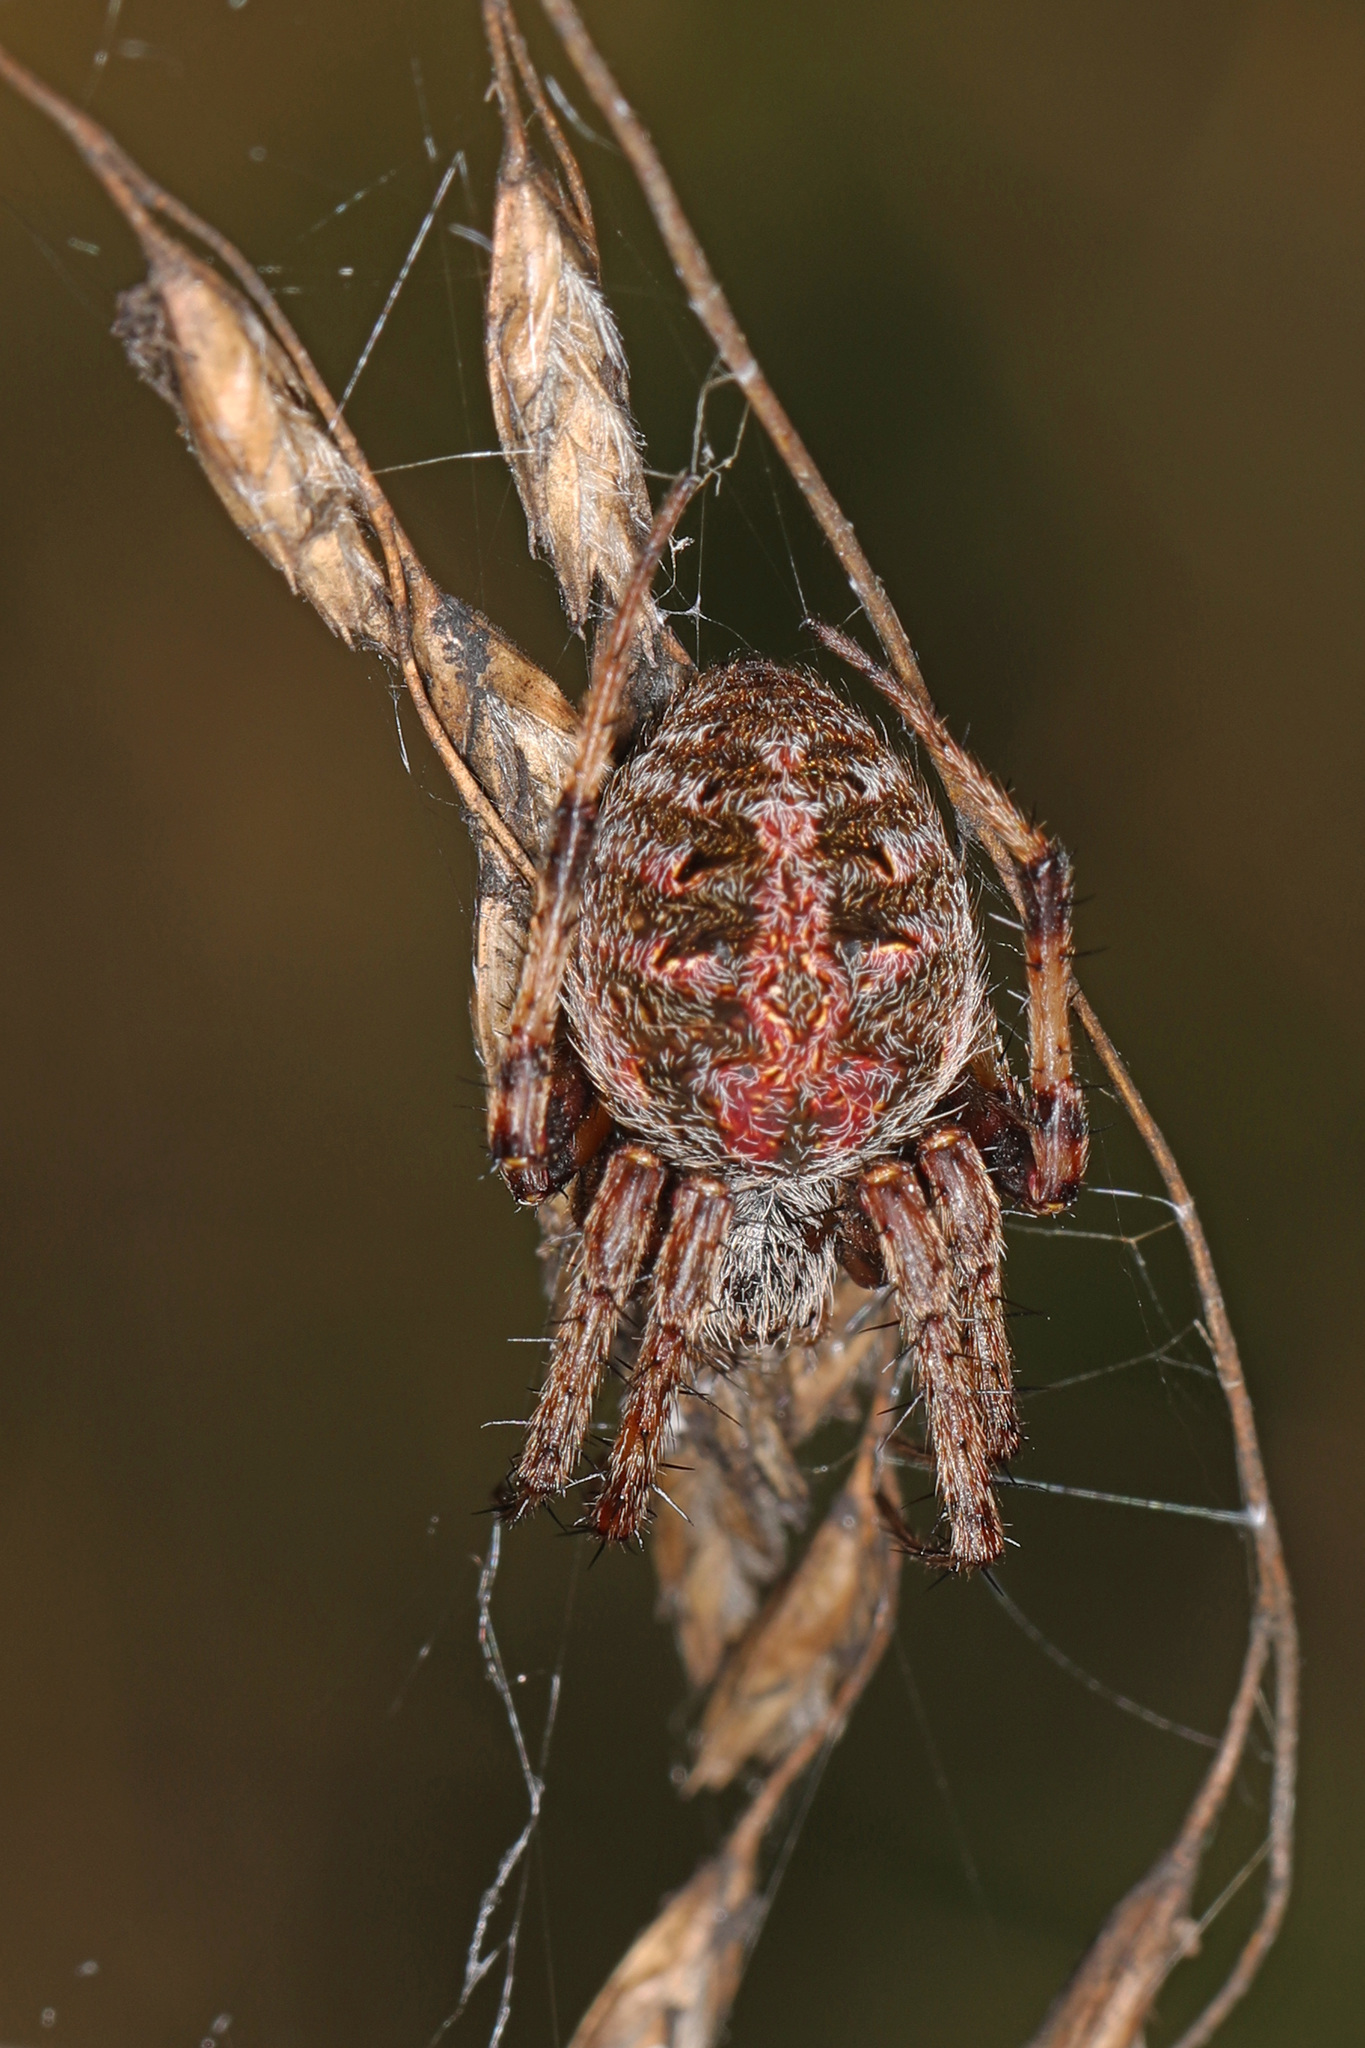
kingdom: Animalia
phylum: Arthropoda
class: Arachnida
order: Araneae
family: Araneidae
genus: Neoscona
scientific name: Neoscona arabesca
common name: Orb weavers
